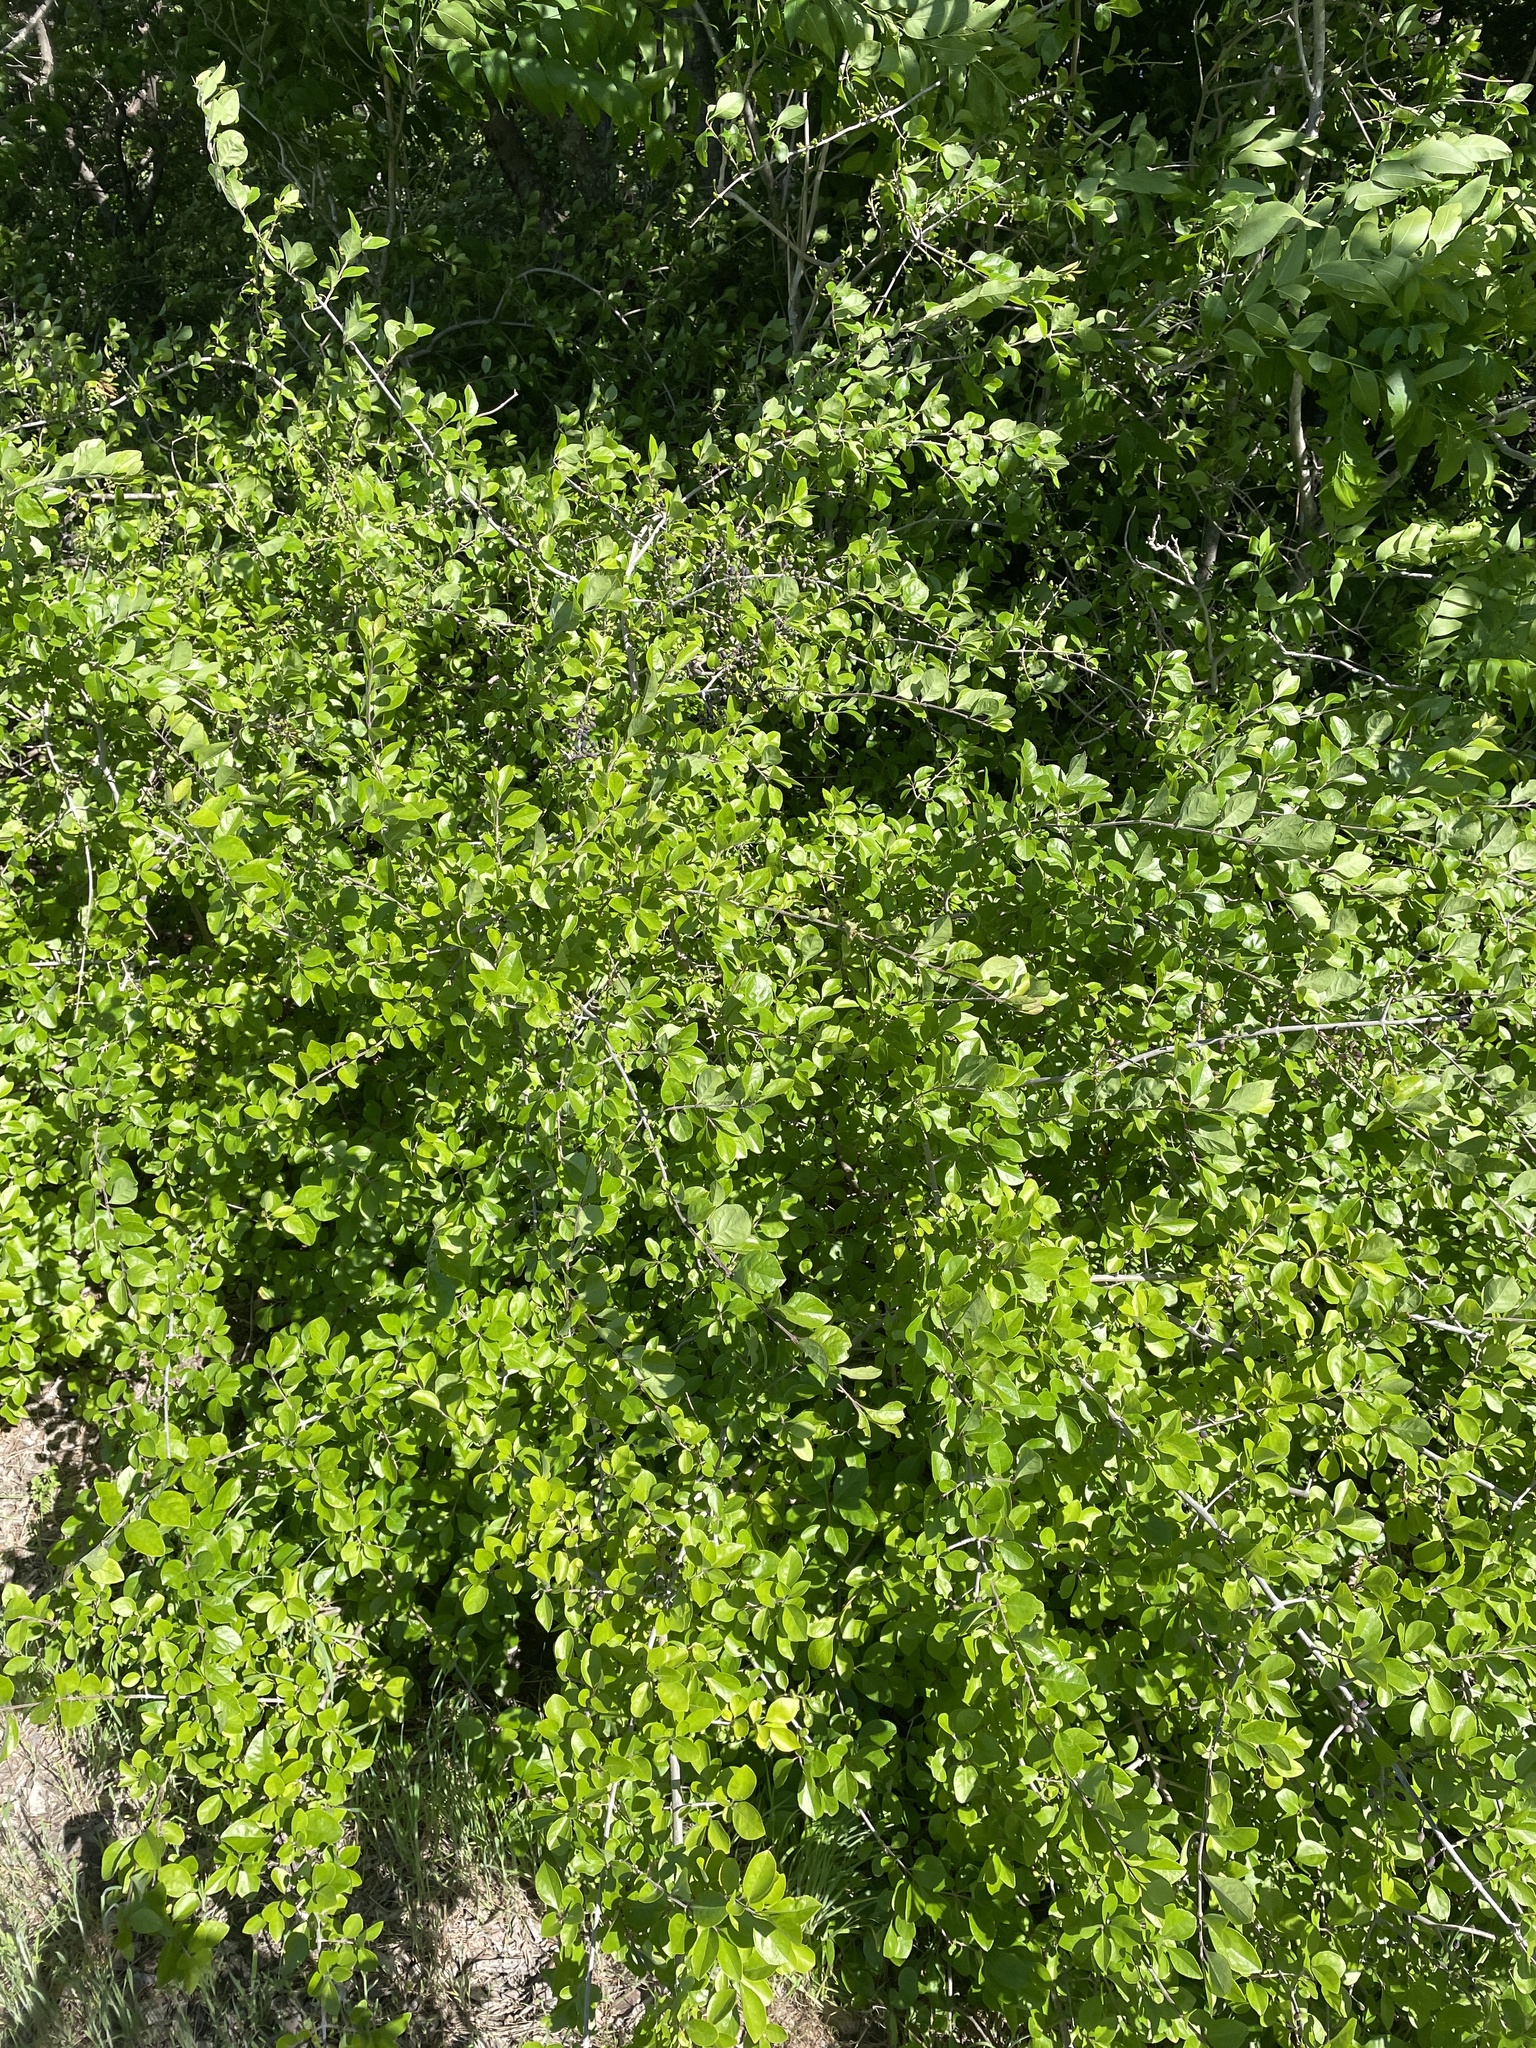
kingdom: Plantae
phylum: Tracheophyta
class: Magnoliopsida
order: Lamiales
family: Oleaceae
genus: Forestiera
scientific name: Forestiera pubescens
